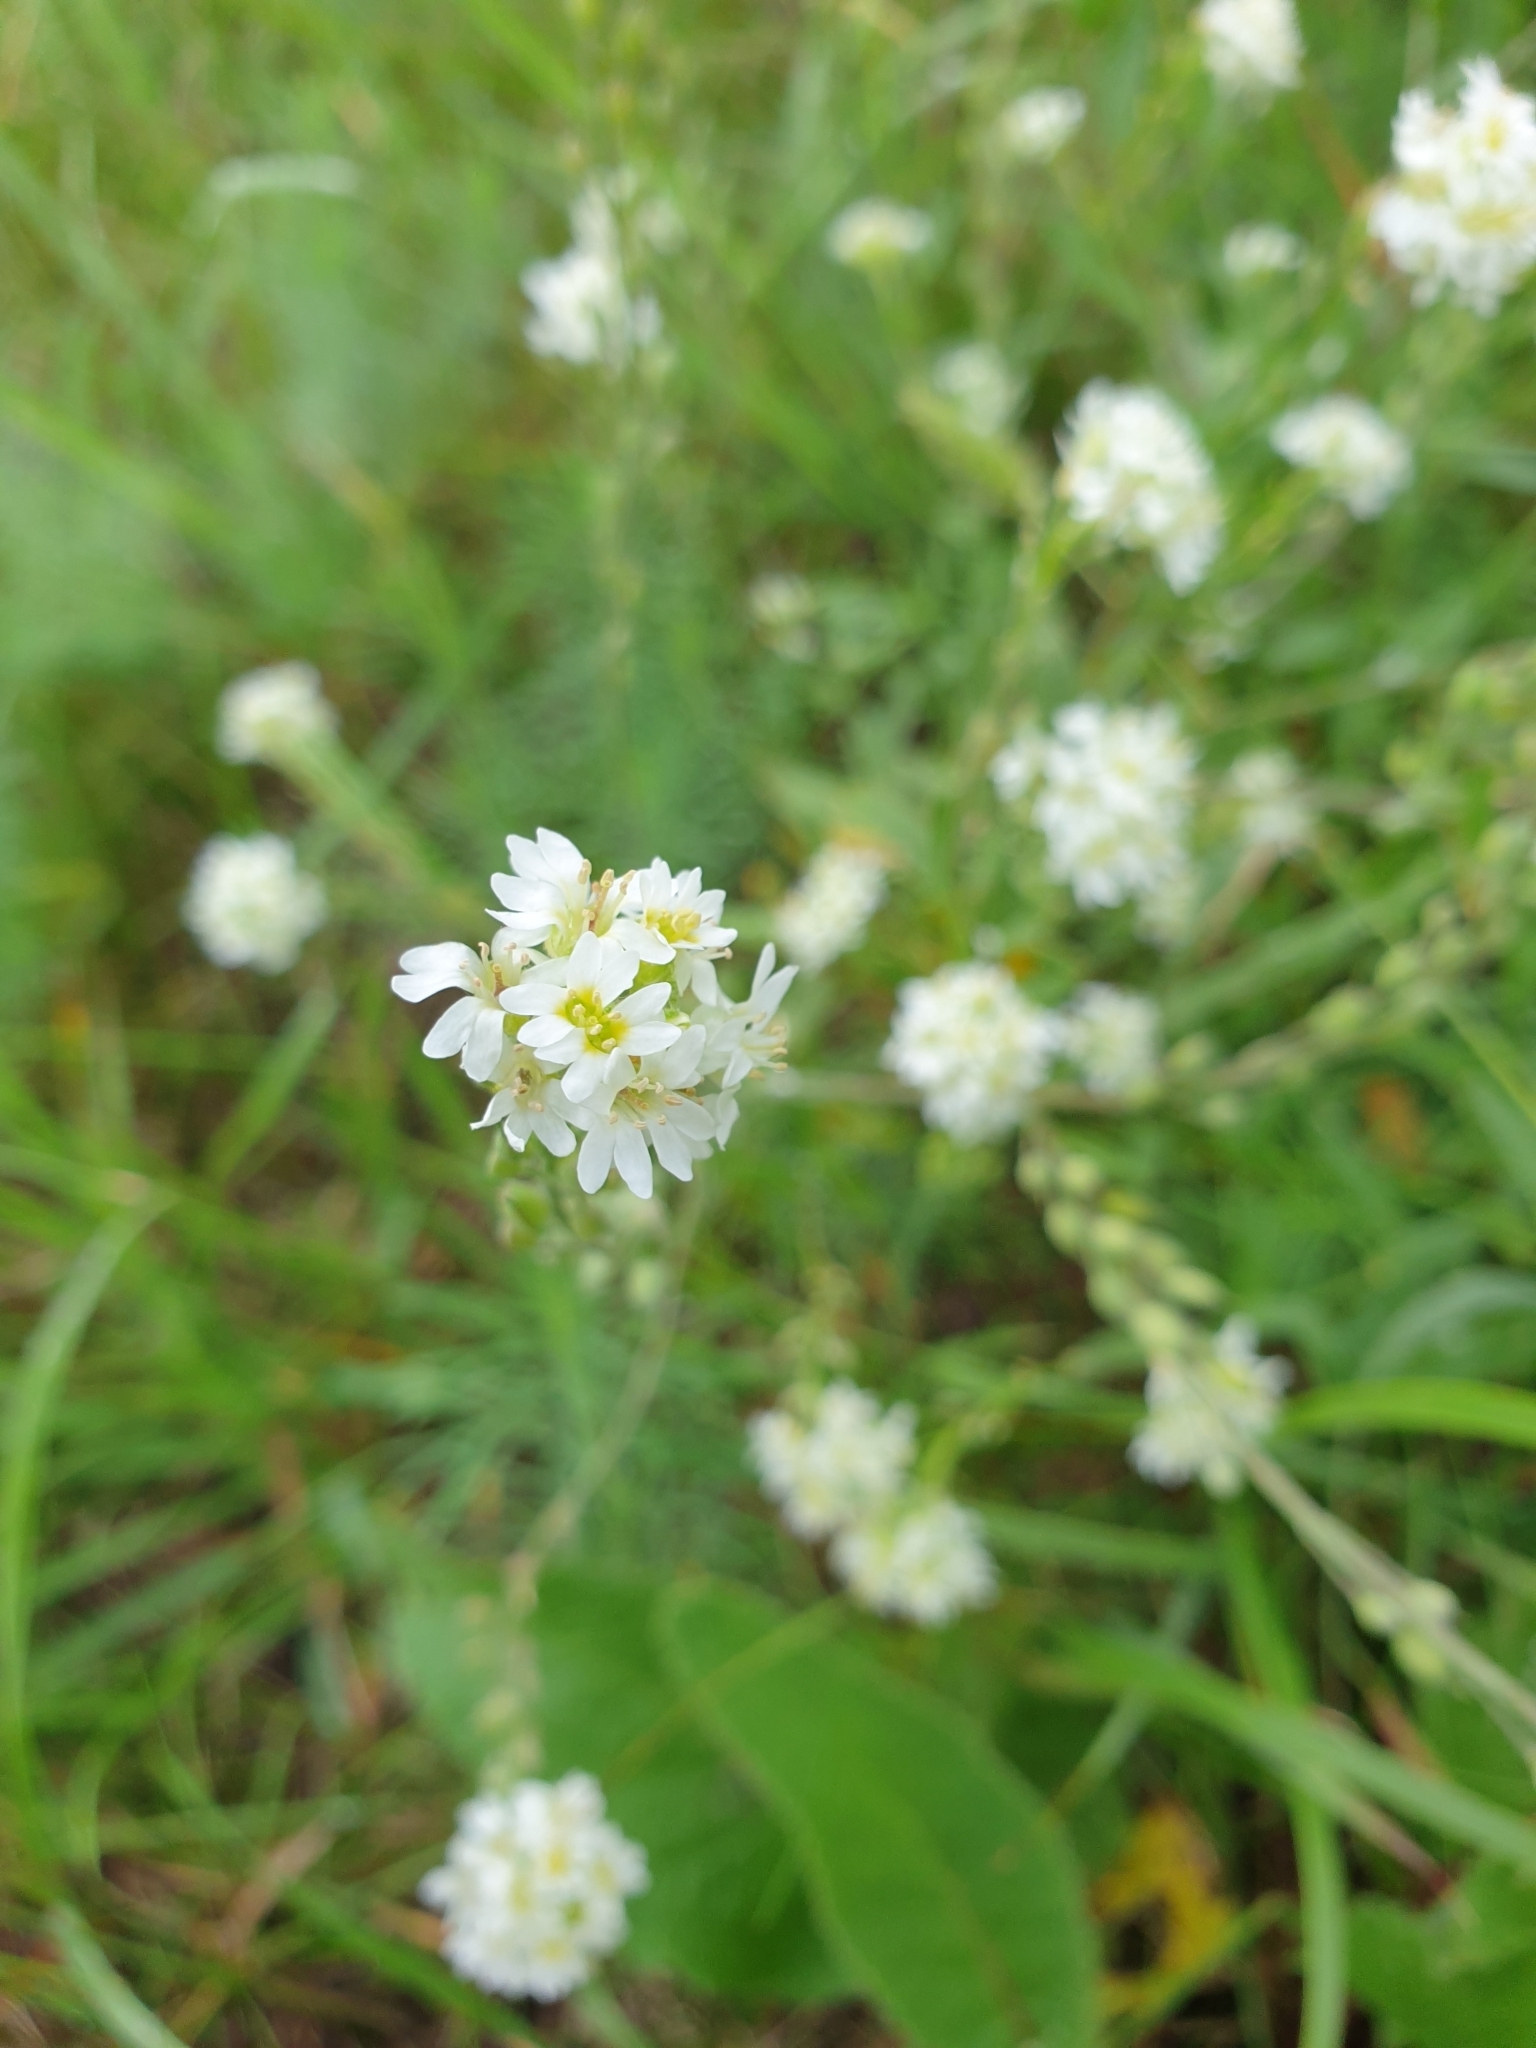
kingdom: Plantae
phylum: Tracheophyta
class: Magnoliopsida
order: Brassicales
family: Brassicaceae
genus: Berteroa
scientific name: Berteroa incana
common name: Hoary alison
